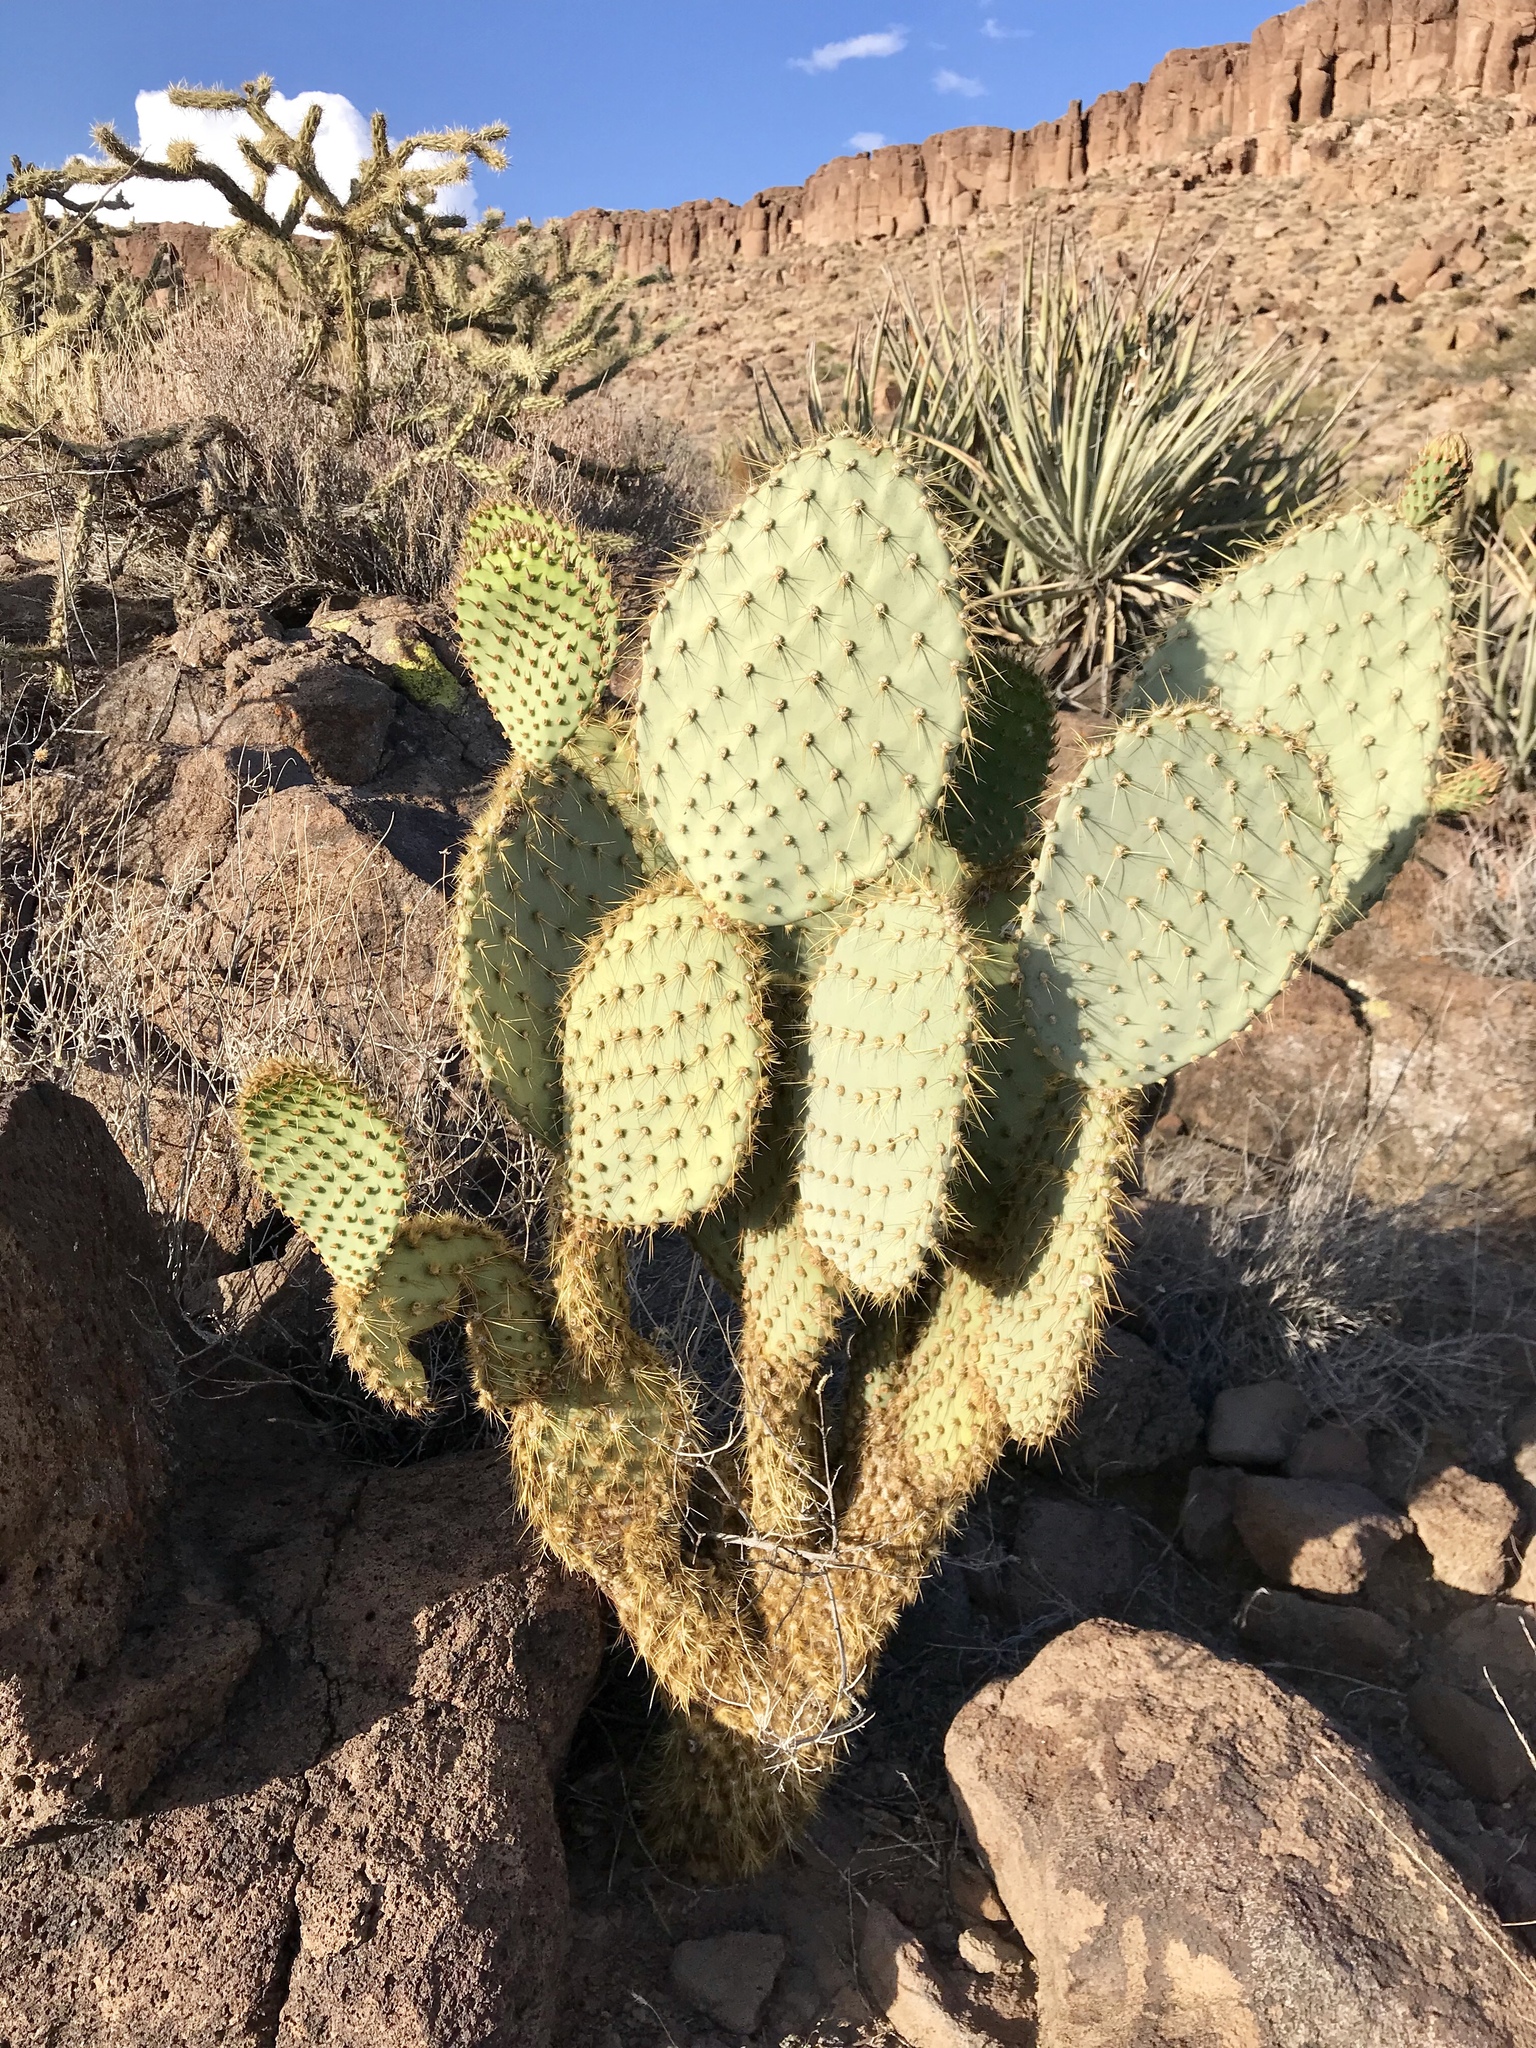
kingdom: Plantae
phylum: Tracheophyta
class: Magnoliopsida
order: Caryophyllales
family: Cactaceae
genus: Opuntia
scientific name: Opuntia chlorotica
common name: Dollar-joint prickly-pear
